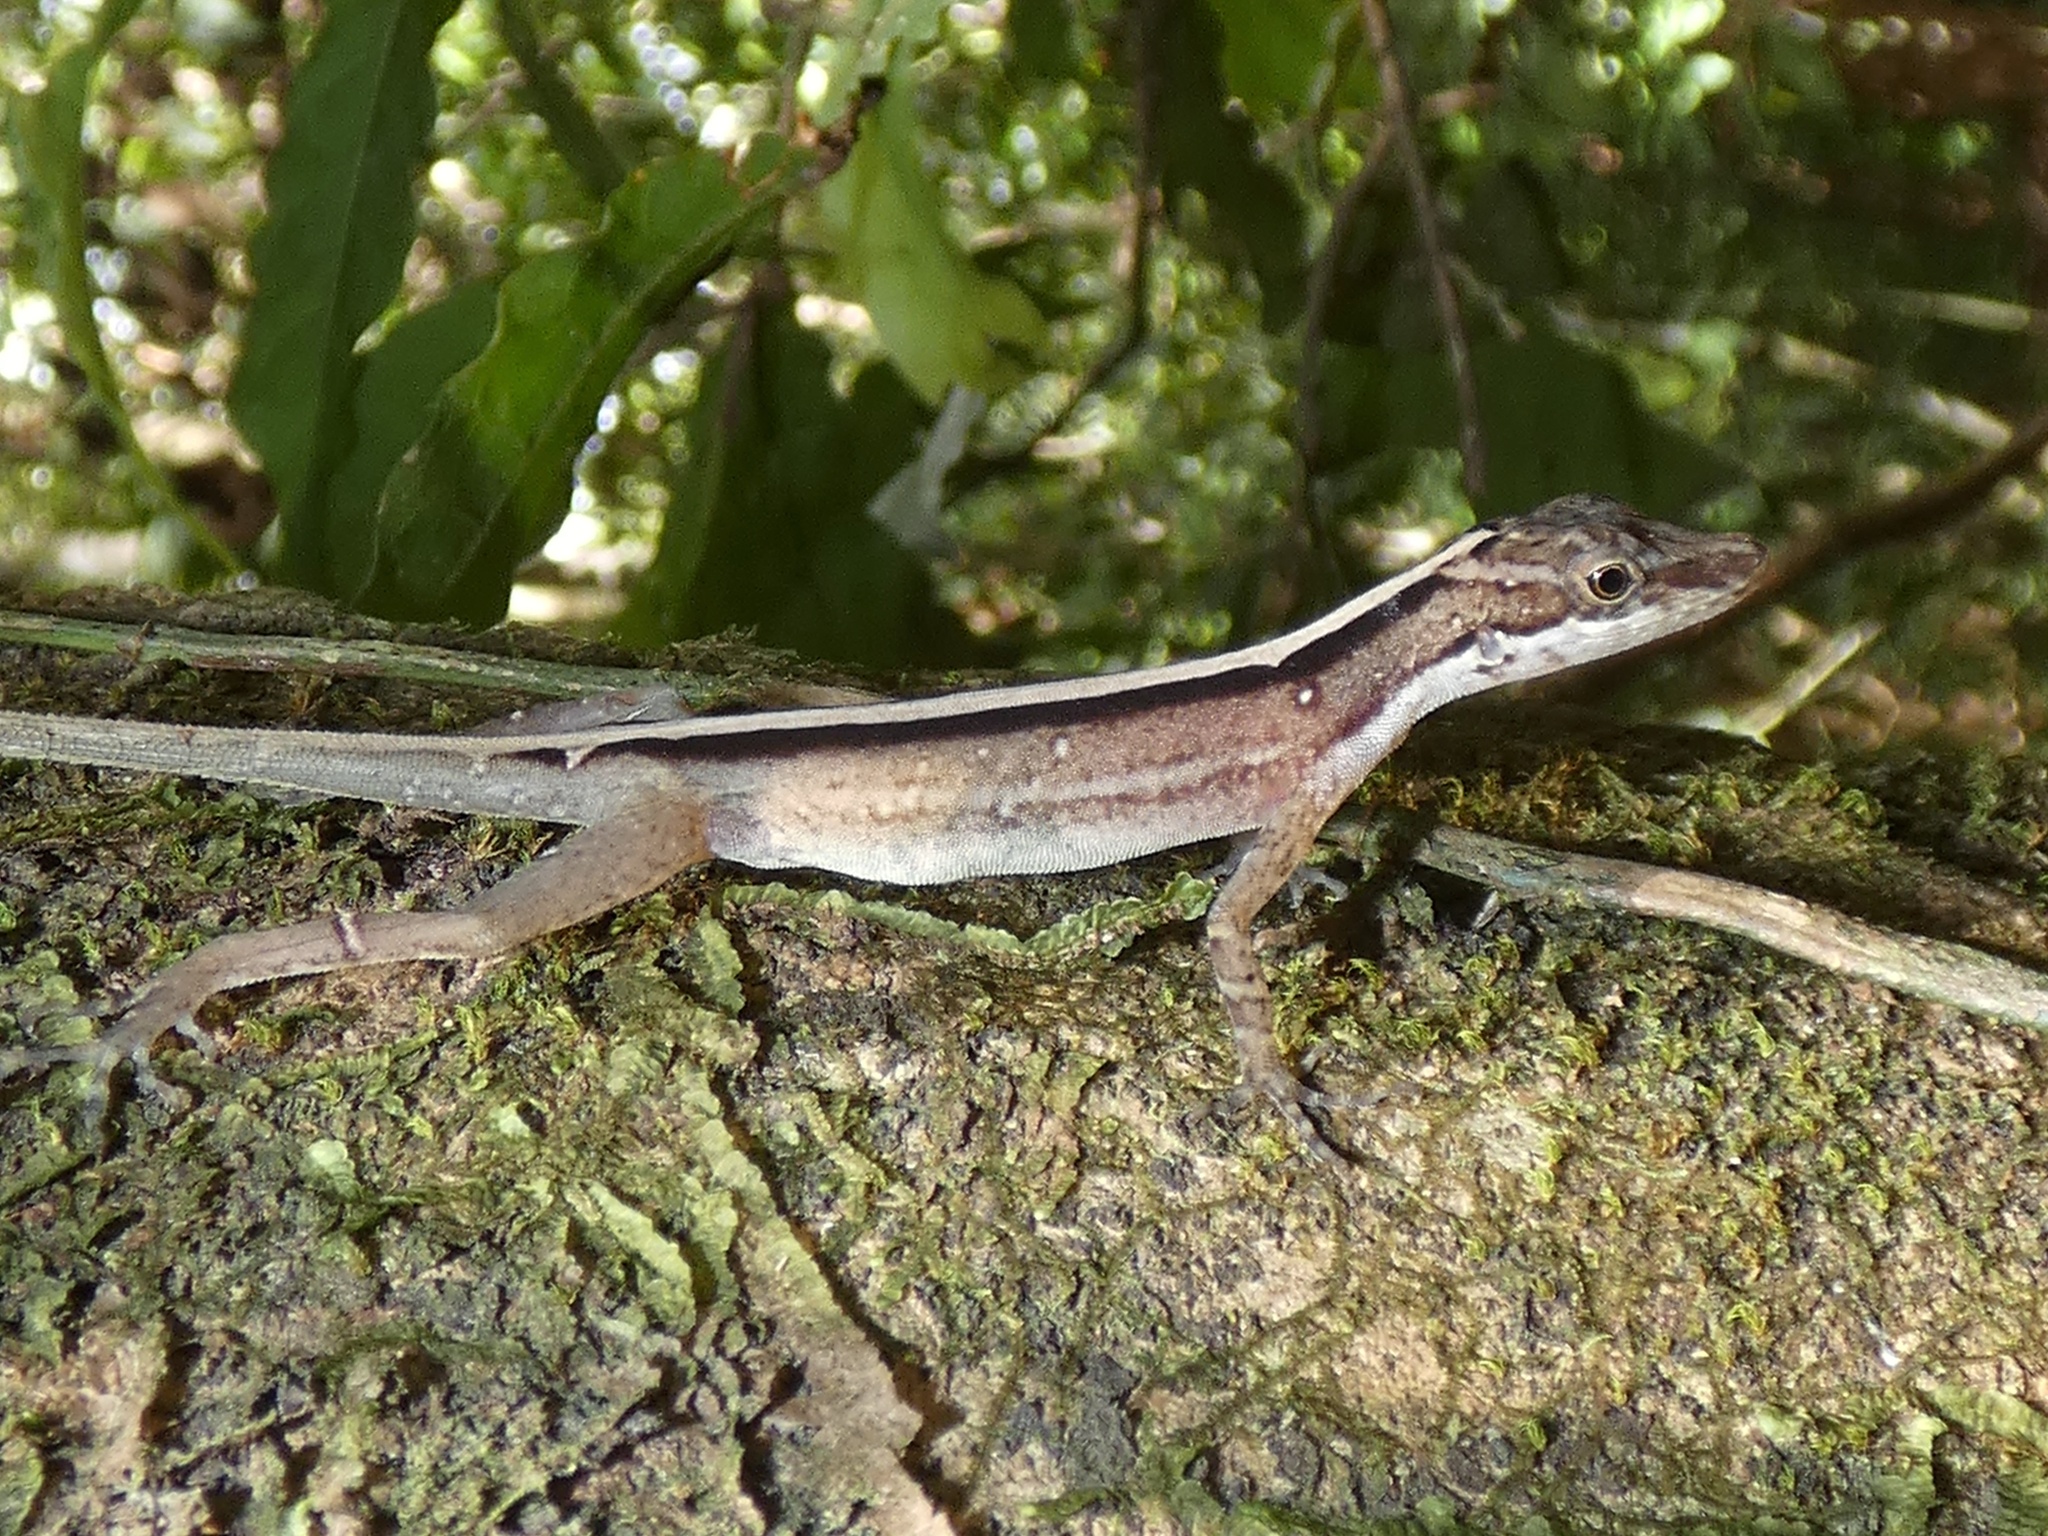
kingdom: Animalia
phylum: Chordata
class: Squamata
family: Dactyloidae
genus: Anolis
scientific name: Anolis apletophallus
